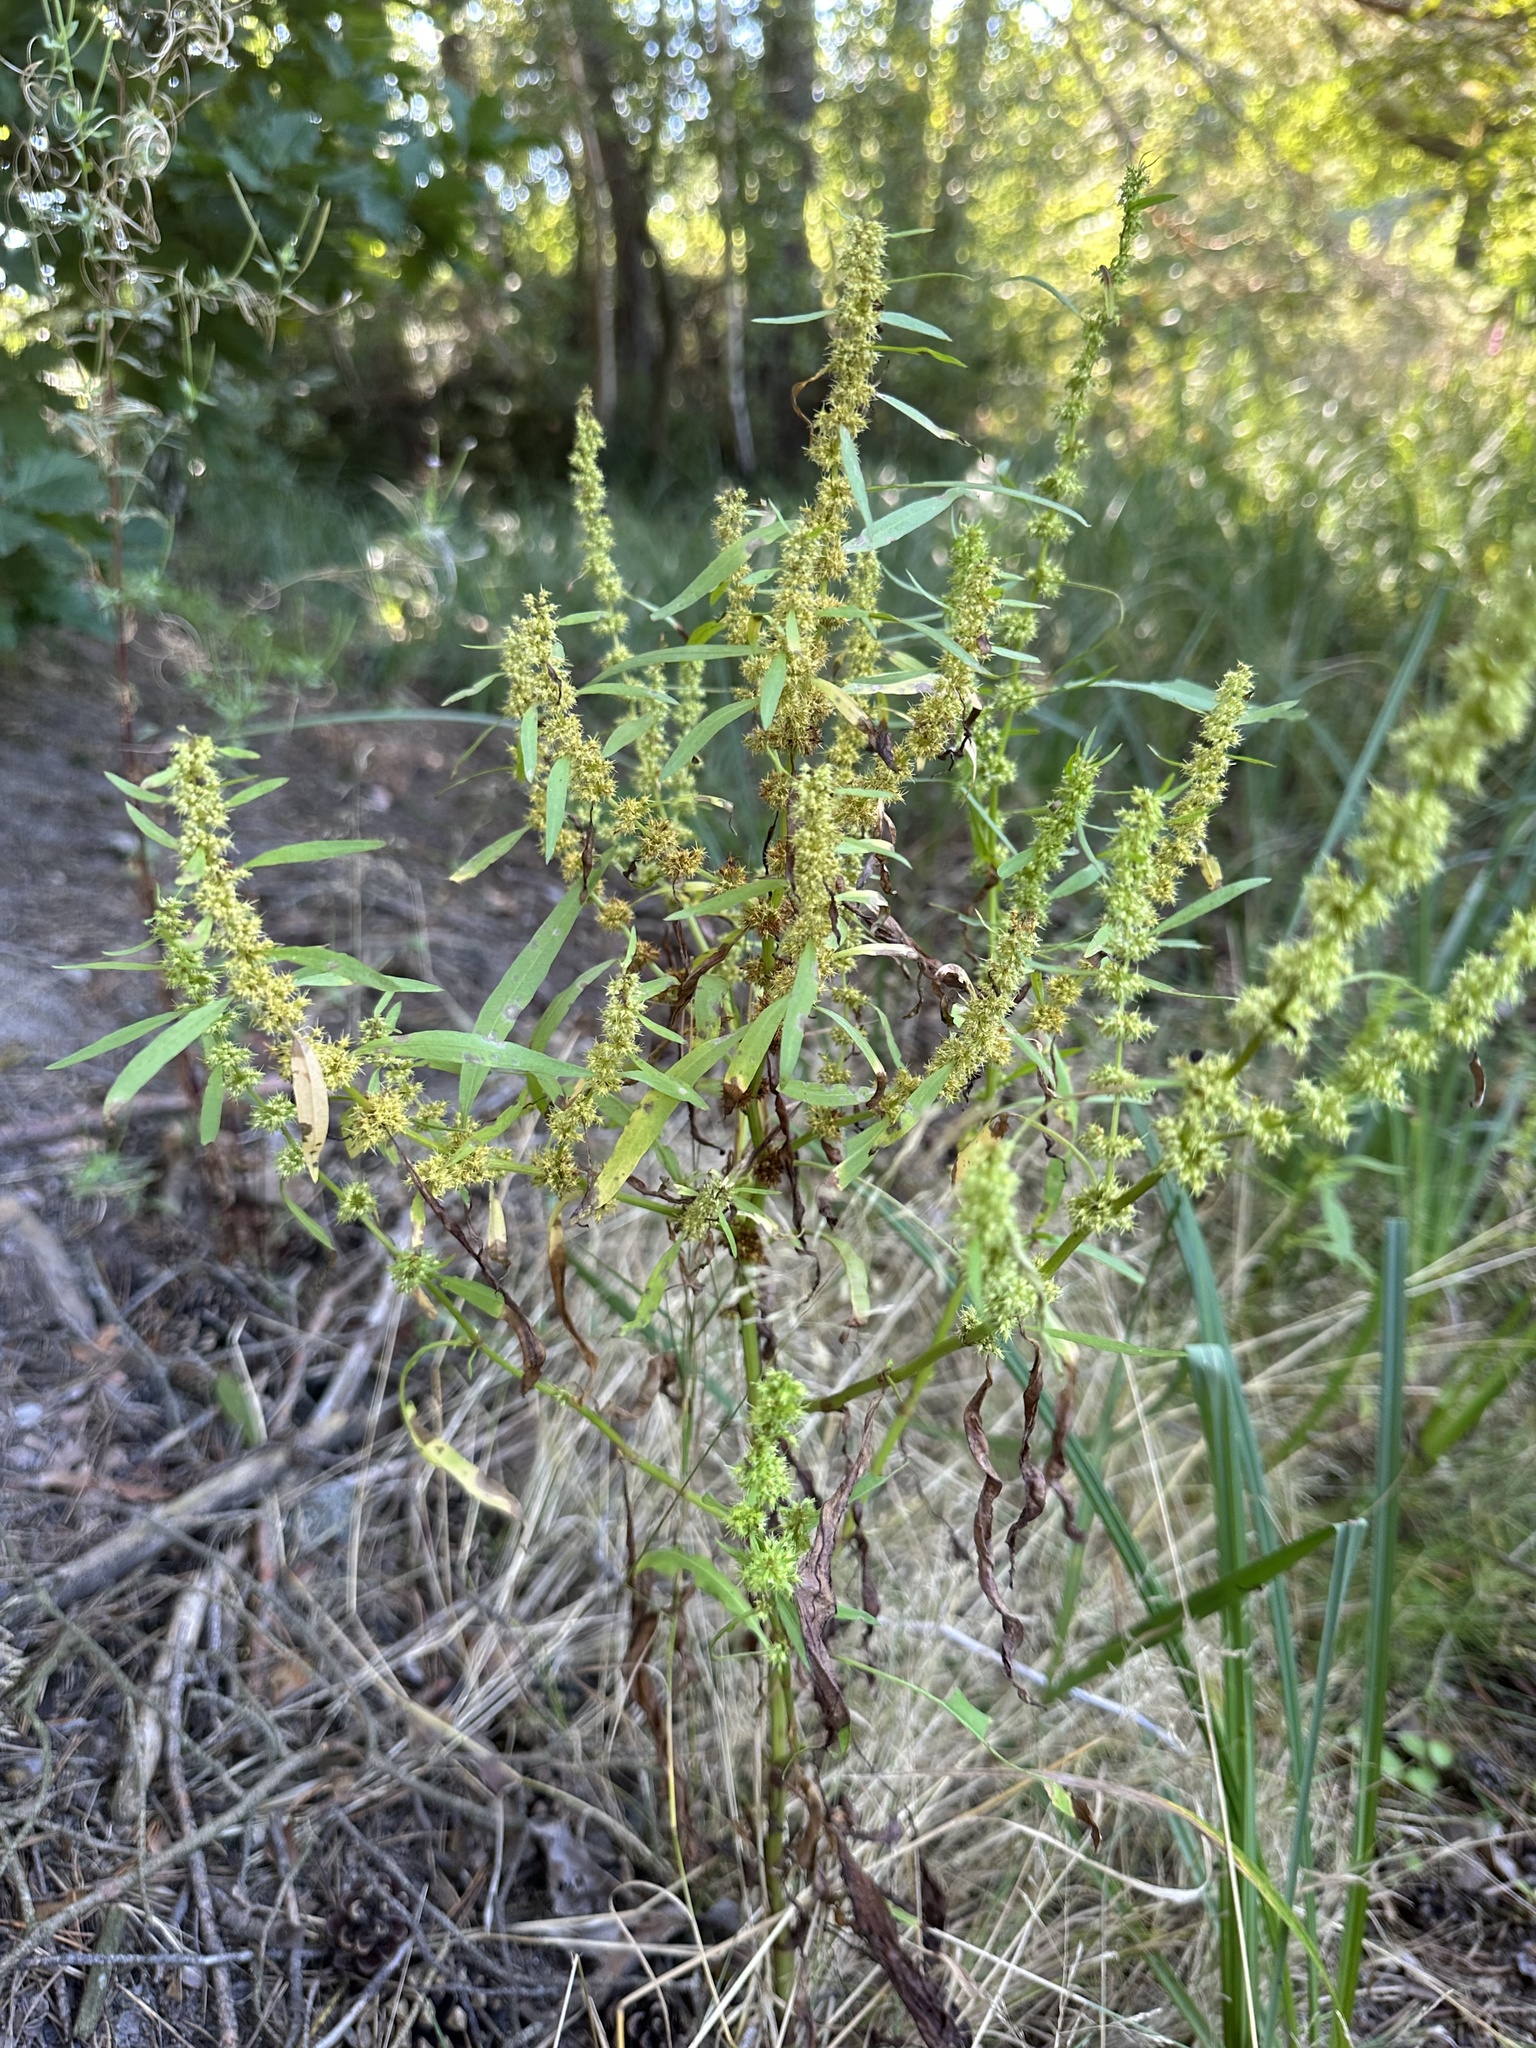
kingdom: Plantae
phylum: Tracheophyta
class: Magnoliopsida
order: Caryophyllales
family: Polygonaceae
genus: Rumex
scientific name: Rumex maritimus
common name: Golden dock
